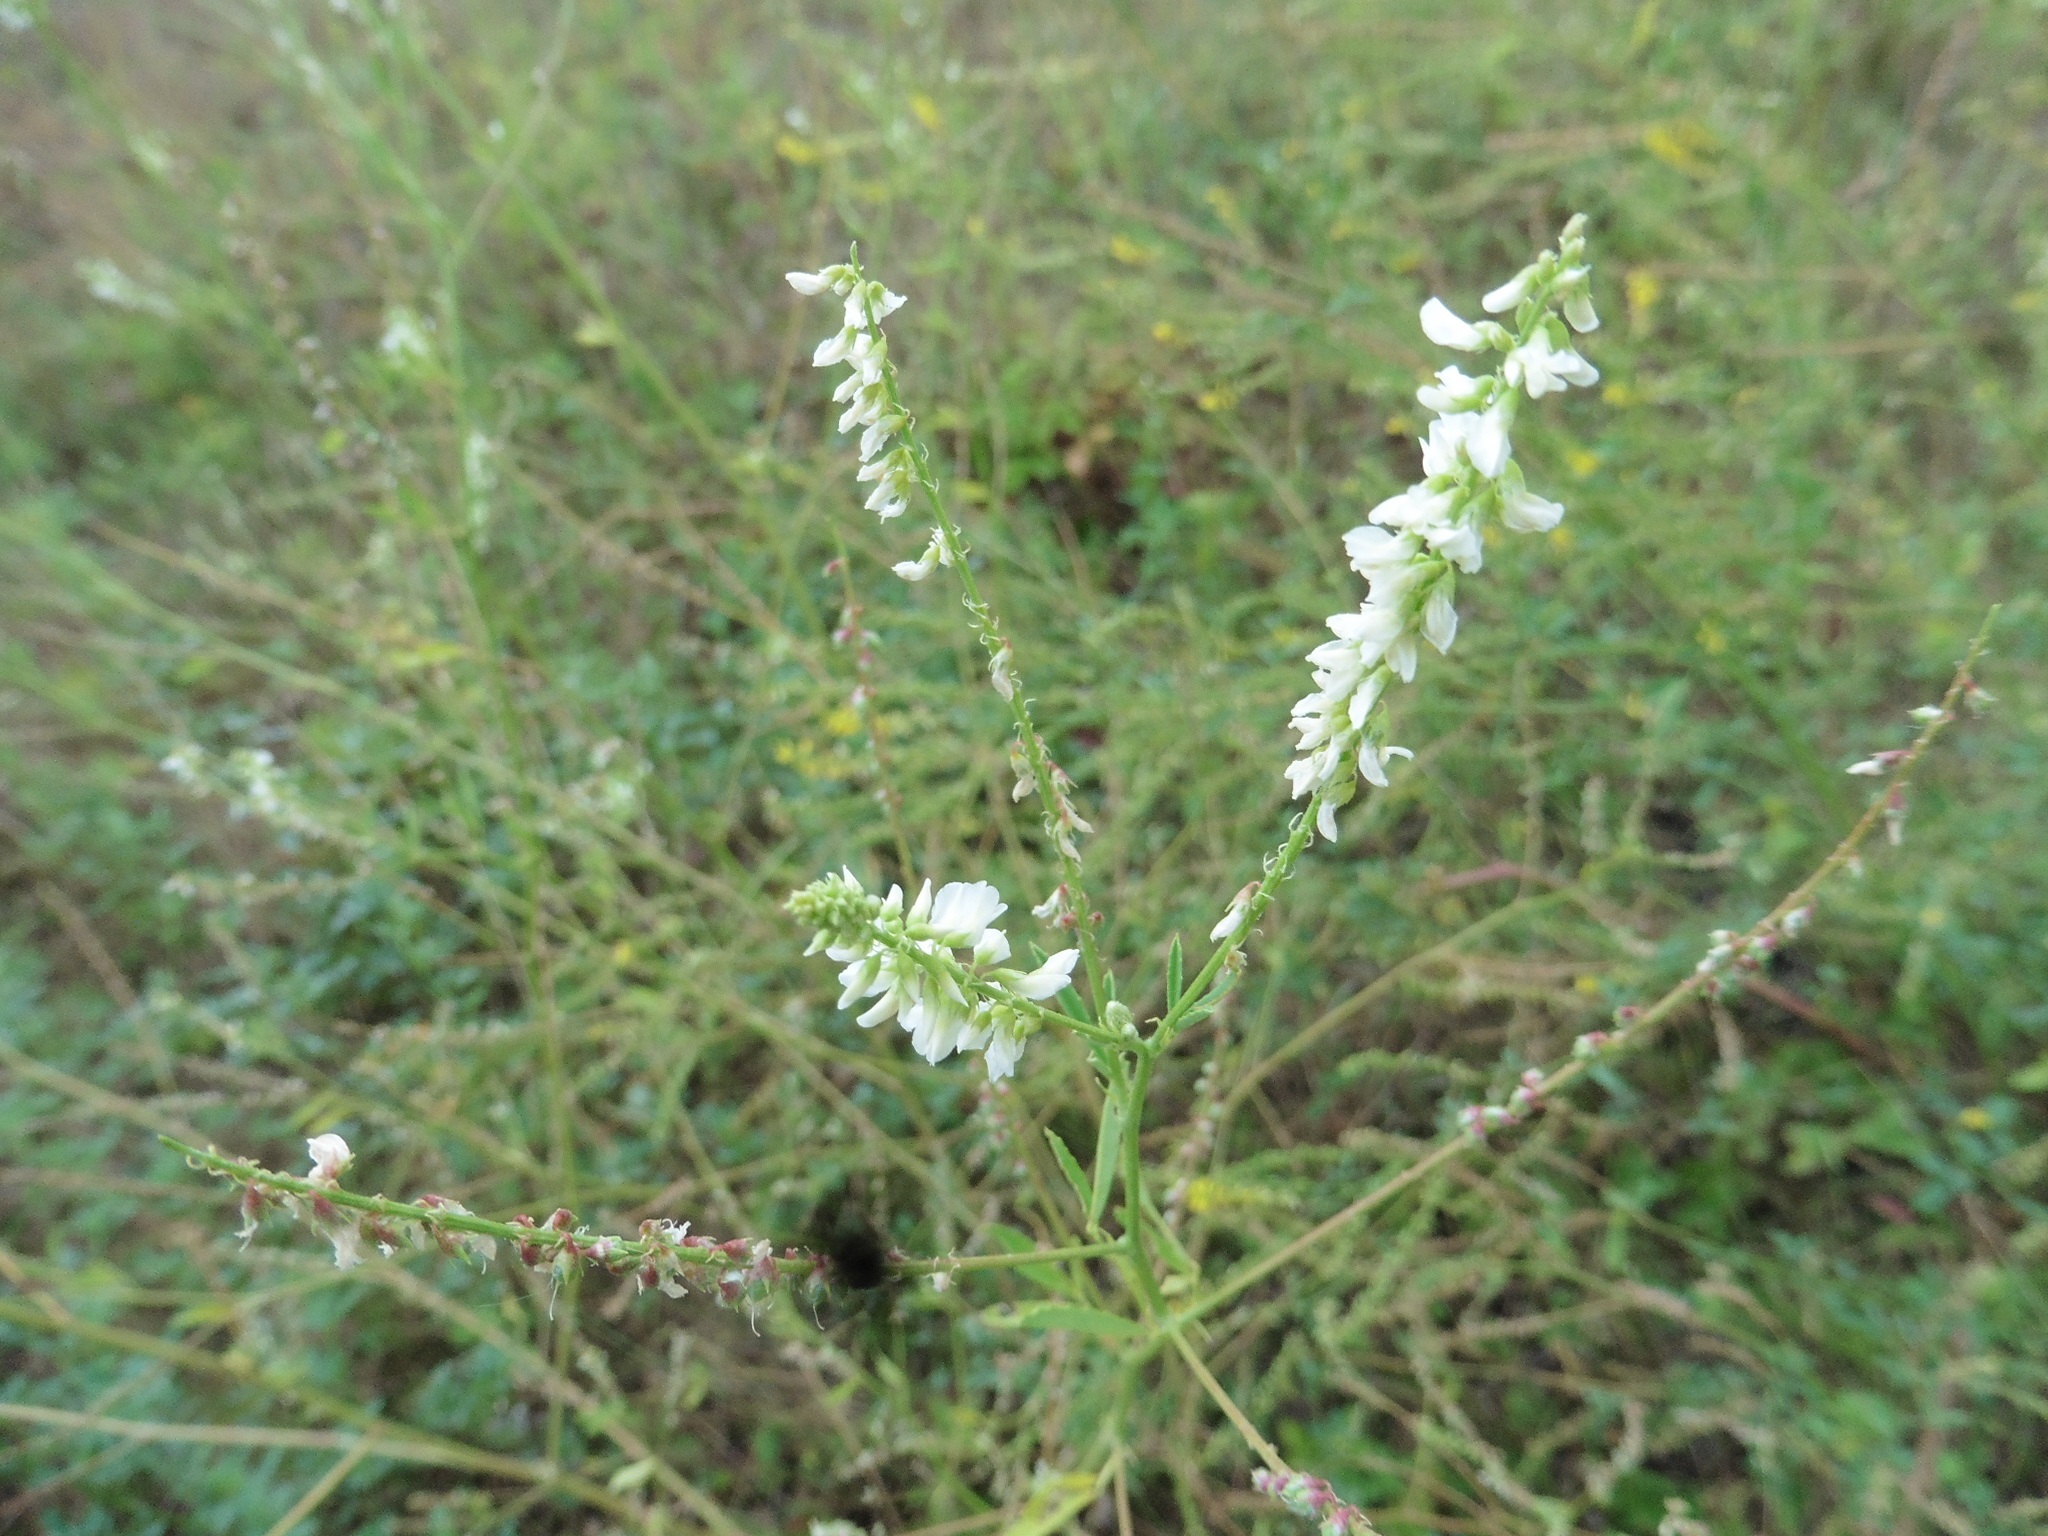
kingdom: Plantae
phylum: Tracheophyta
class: Magnoliopsida
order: Fabales
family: Fabaceae
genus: Melilotus
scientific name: Melilotus albus
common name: White melilot
